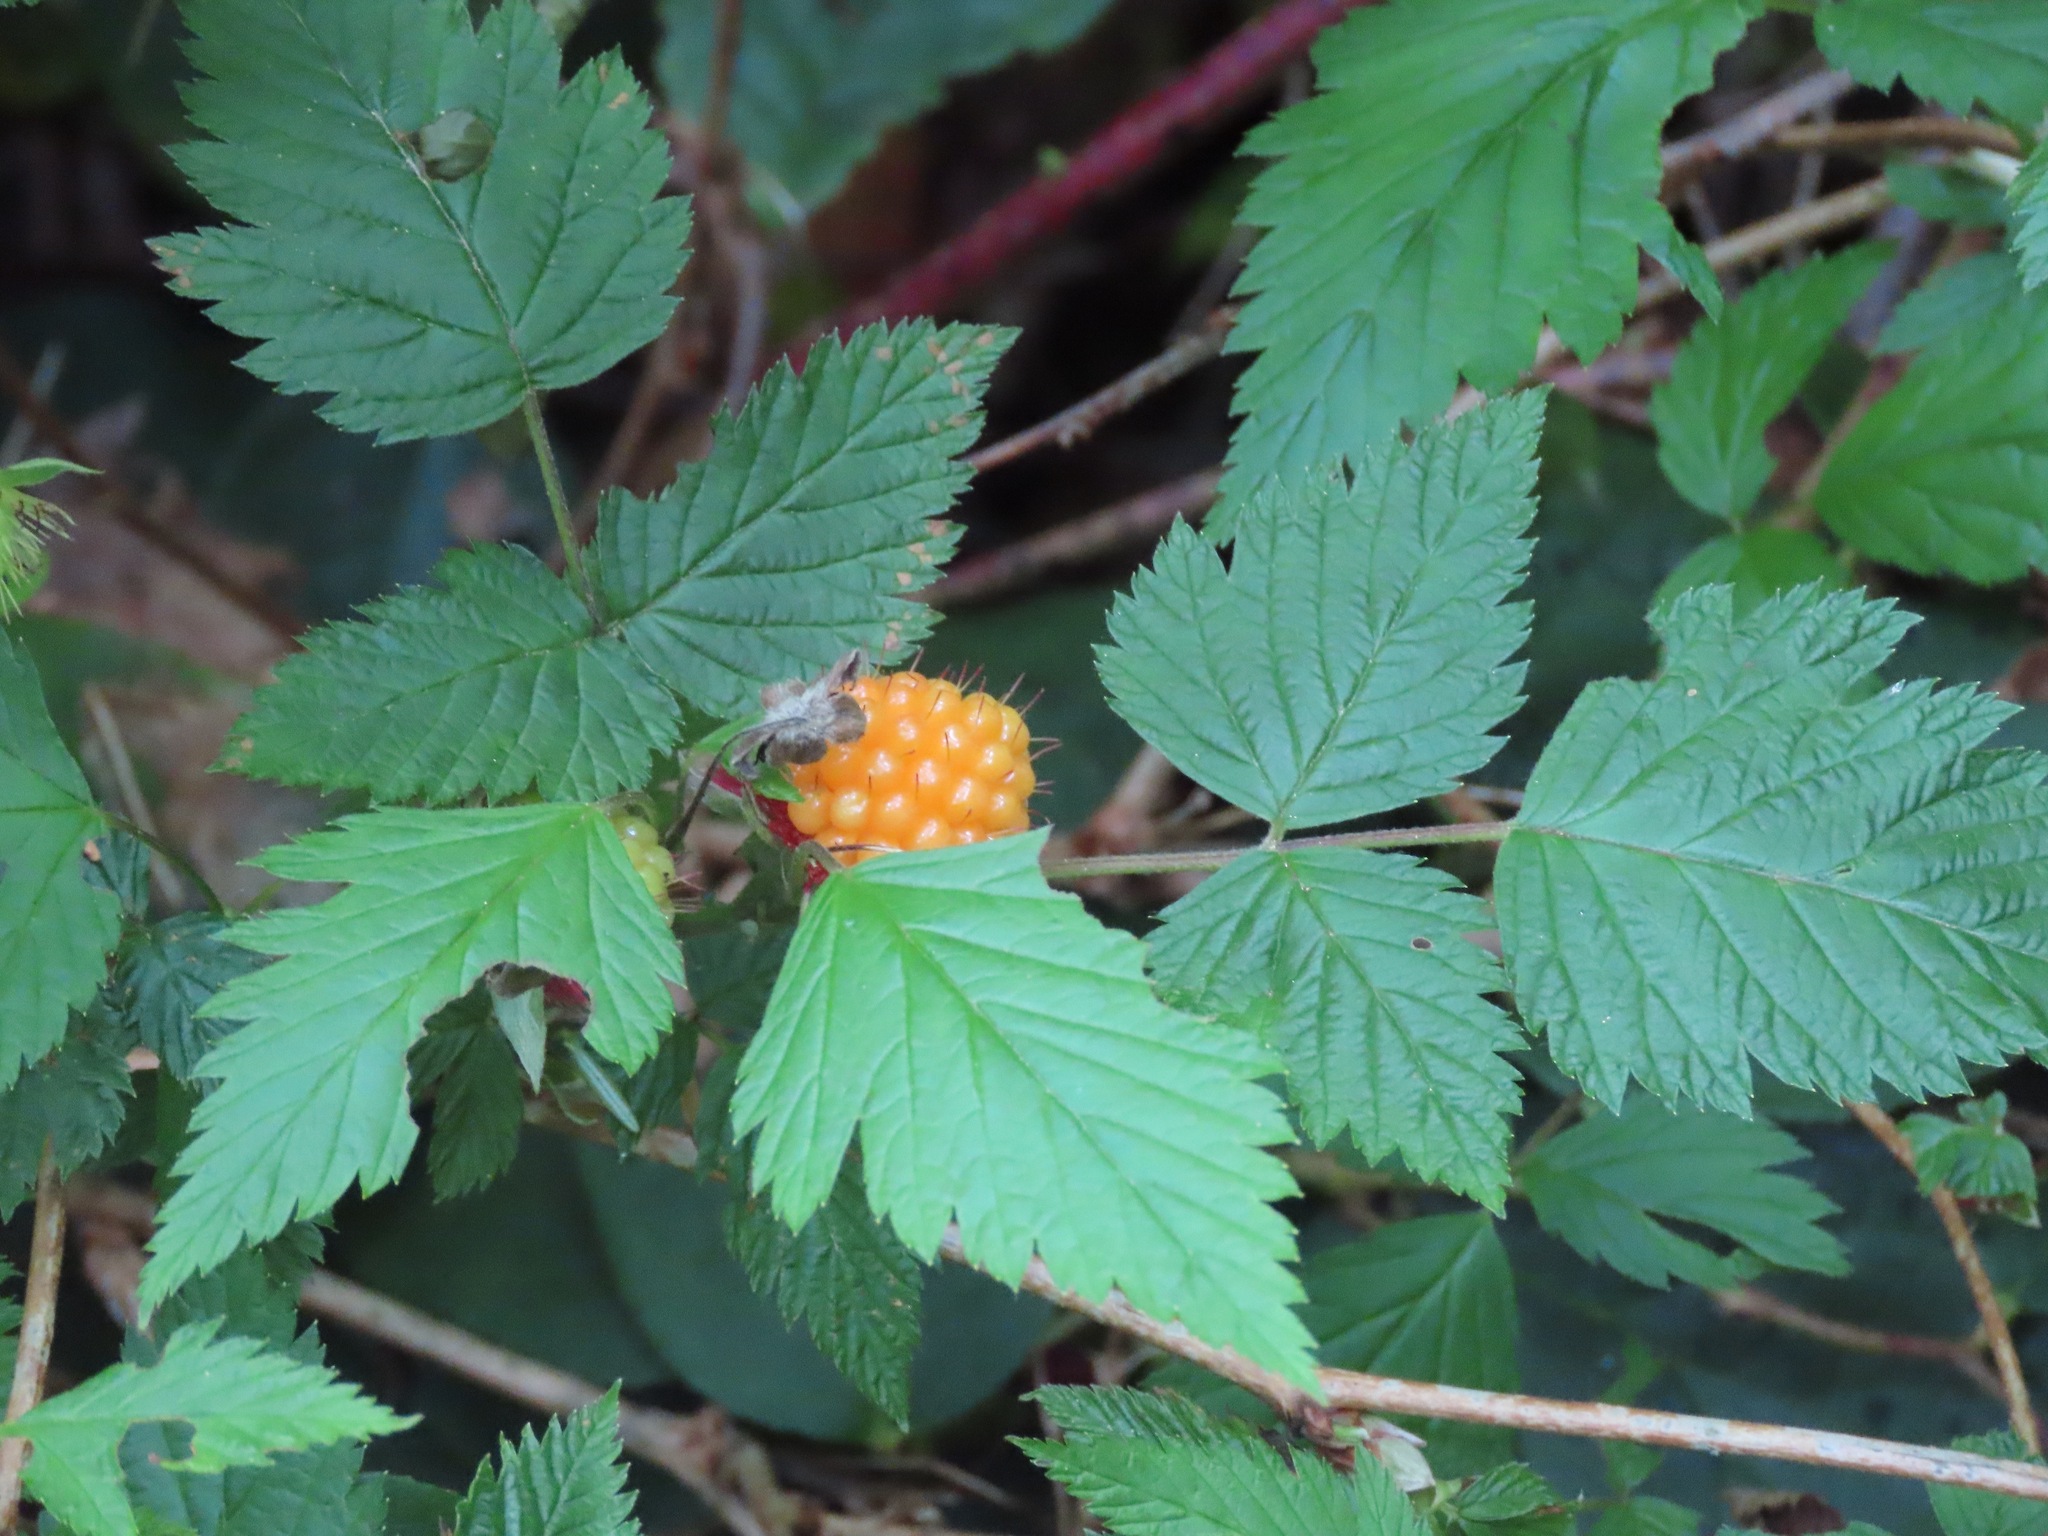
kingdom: Plantae
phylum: Tracheophyta
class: Magnoliopsida
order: Rosales
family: Rosaceae
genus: Rubus
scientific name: Rubus spectabilis
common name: Salmonberry
